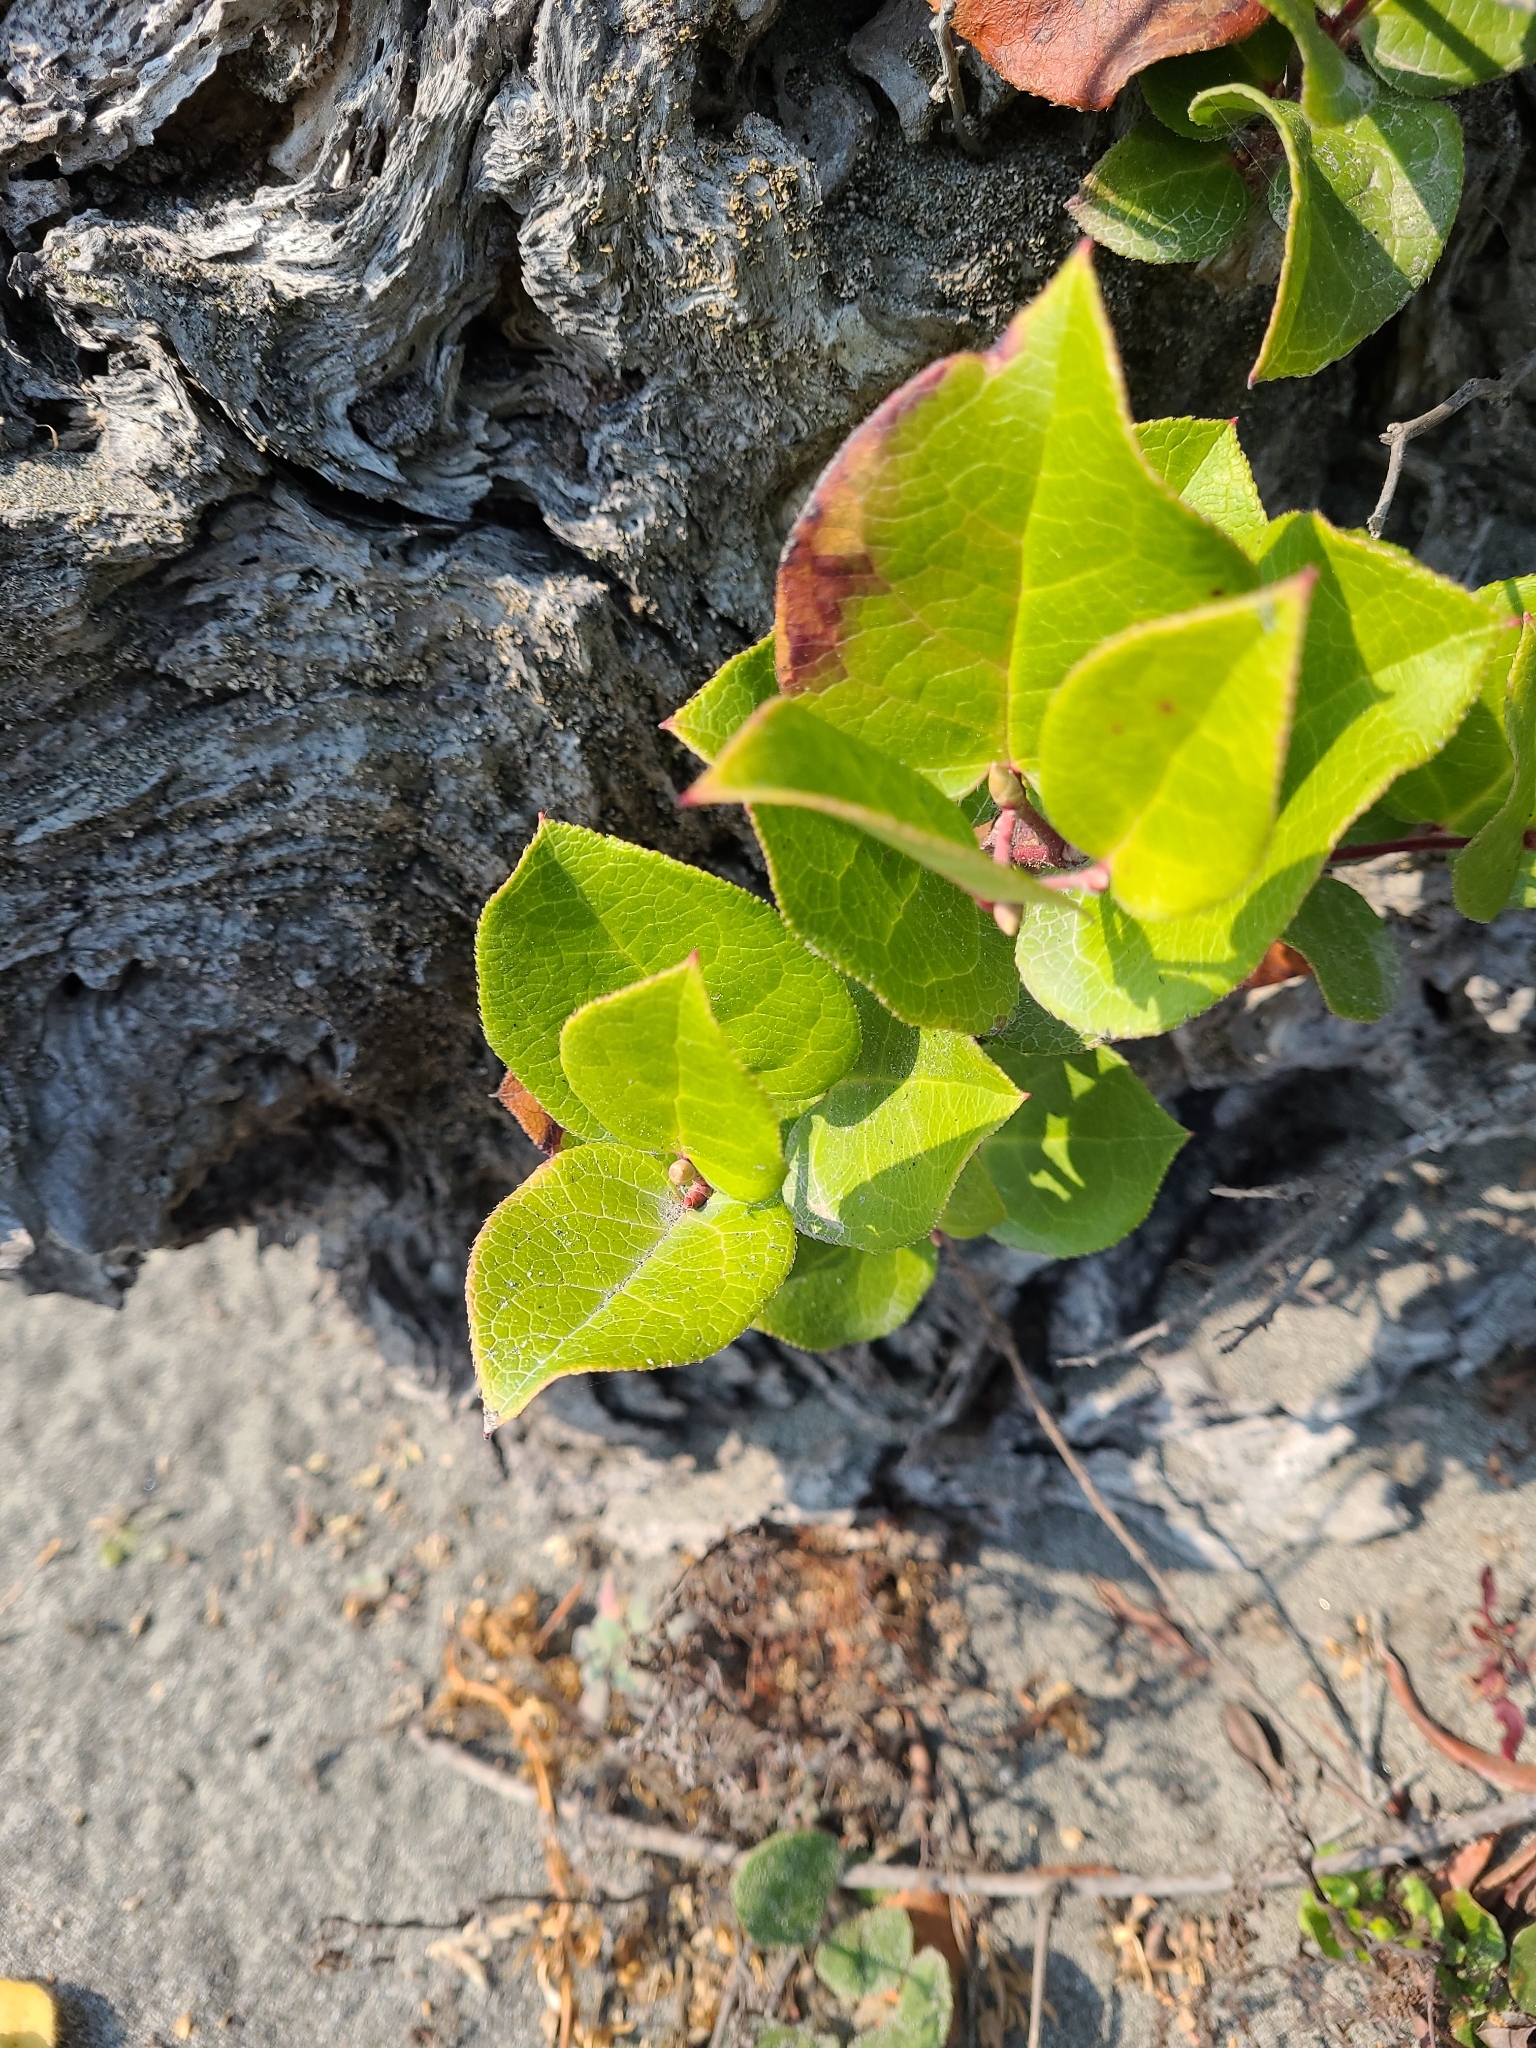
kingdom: Plantae
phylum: Tracheophyta
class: Magnoliopsida
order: Ericales
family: Ericaceae
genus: Gaultheria
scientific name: Gaultheria shallon
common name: Shallon
